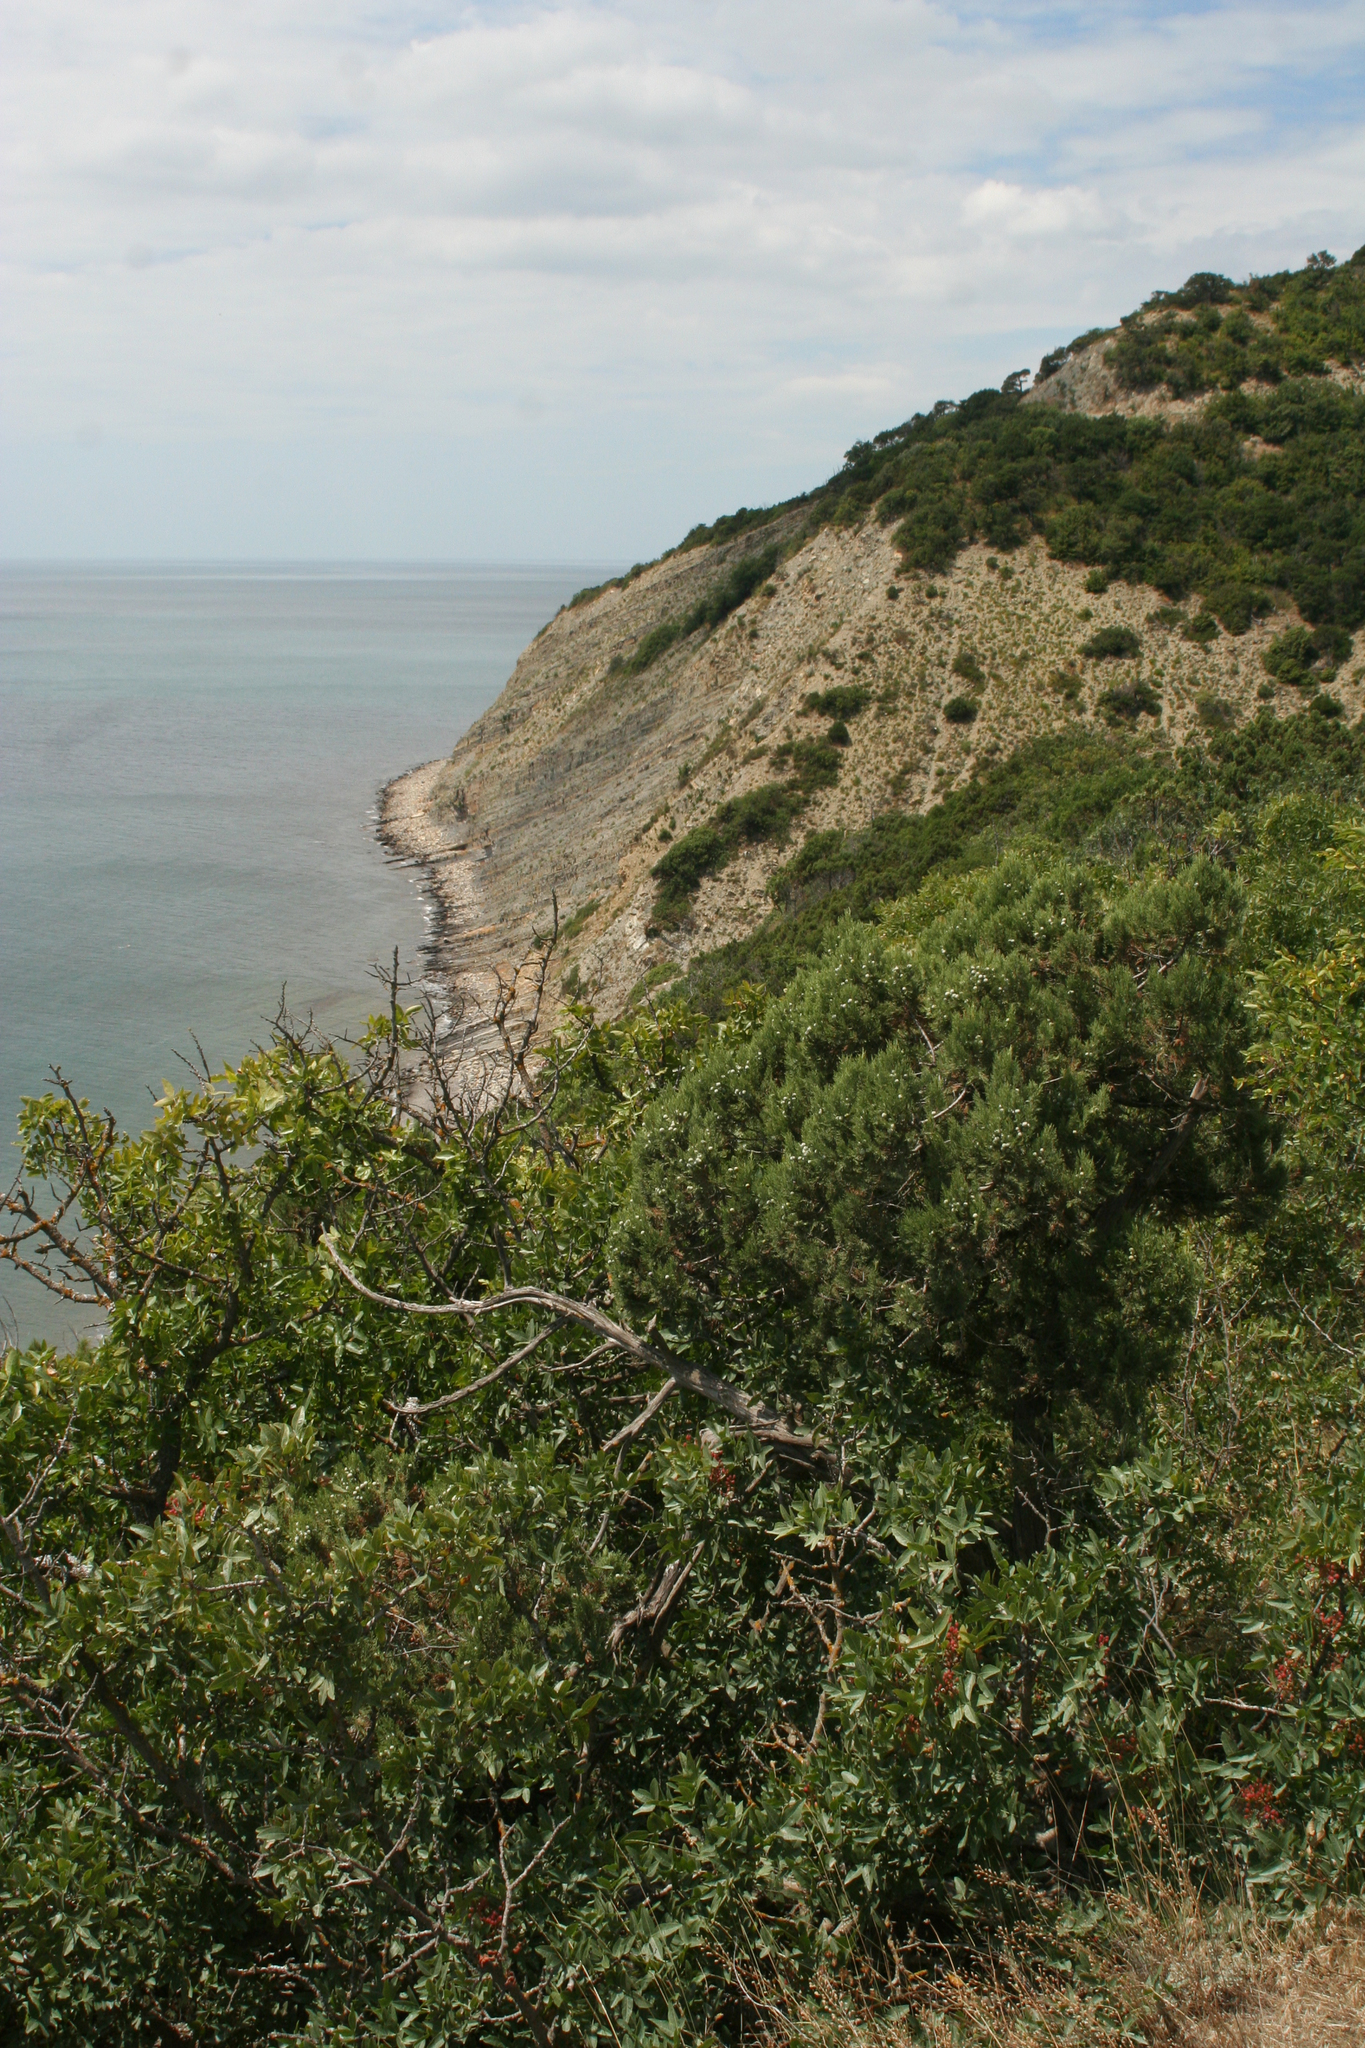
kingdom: Plantae
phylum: Tracheophyta
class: Magnoliopsida
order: Sapindales
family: Anacardiaceae
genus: Pistacia
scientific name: Pistacia atlantica
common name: Mt. atlas mastic tree
